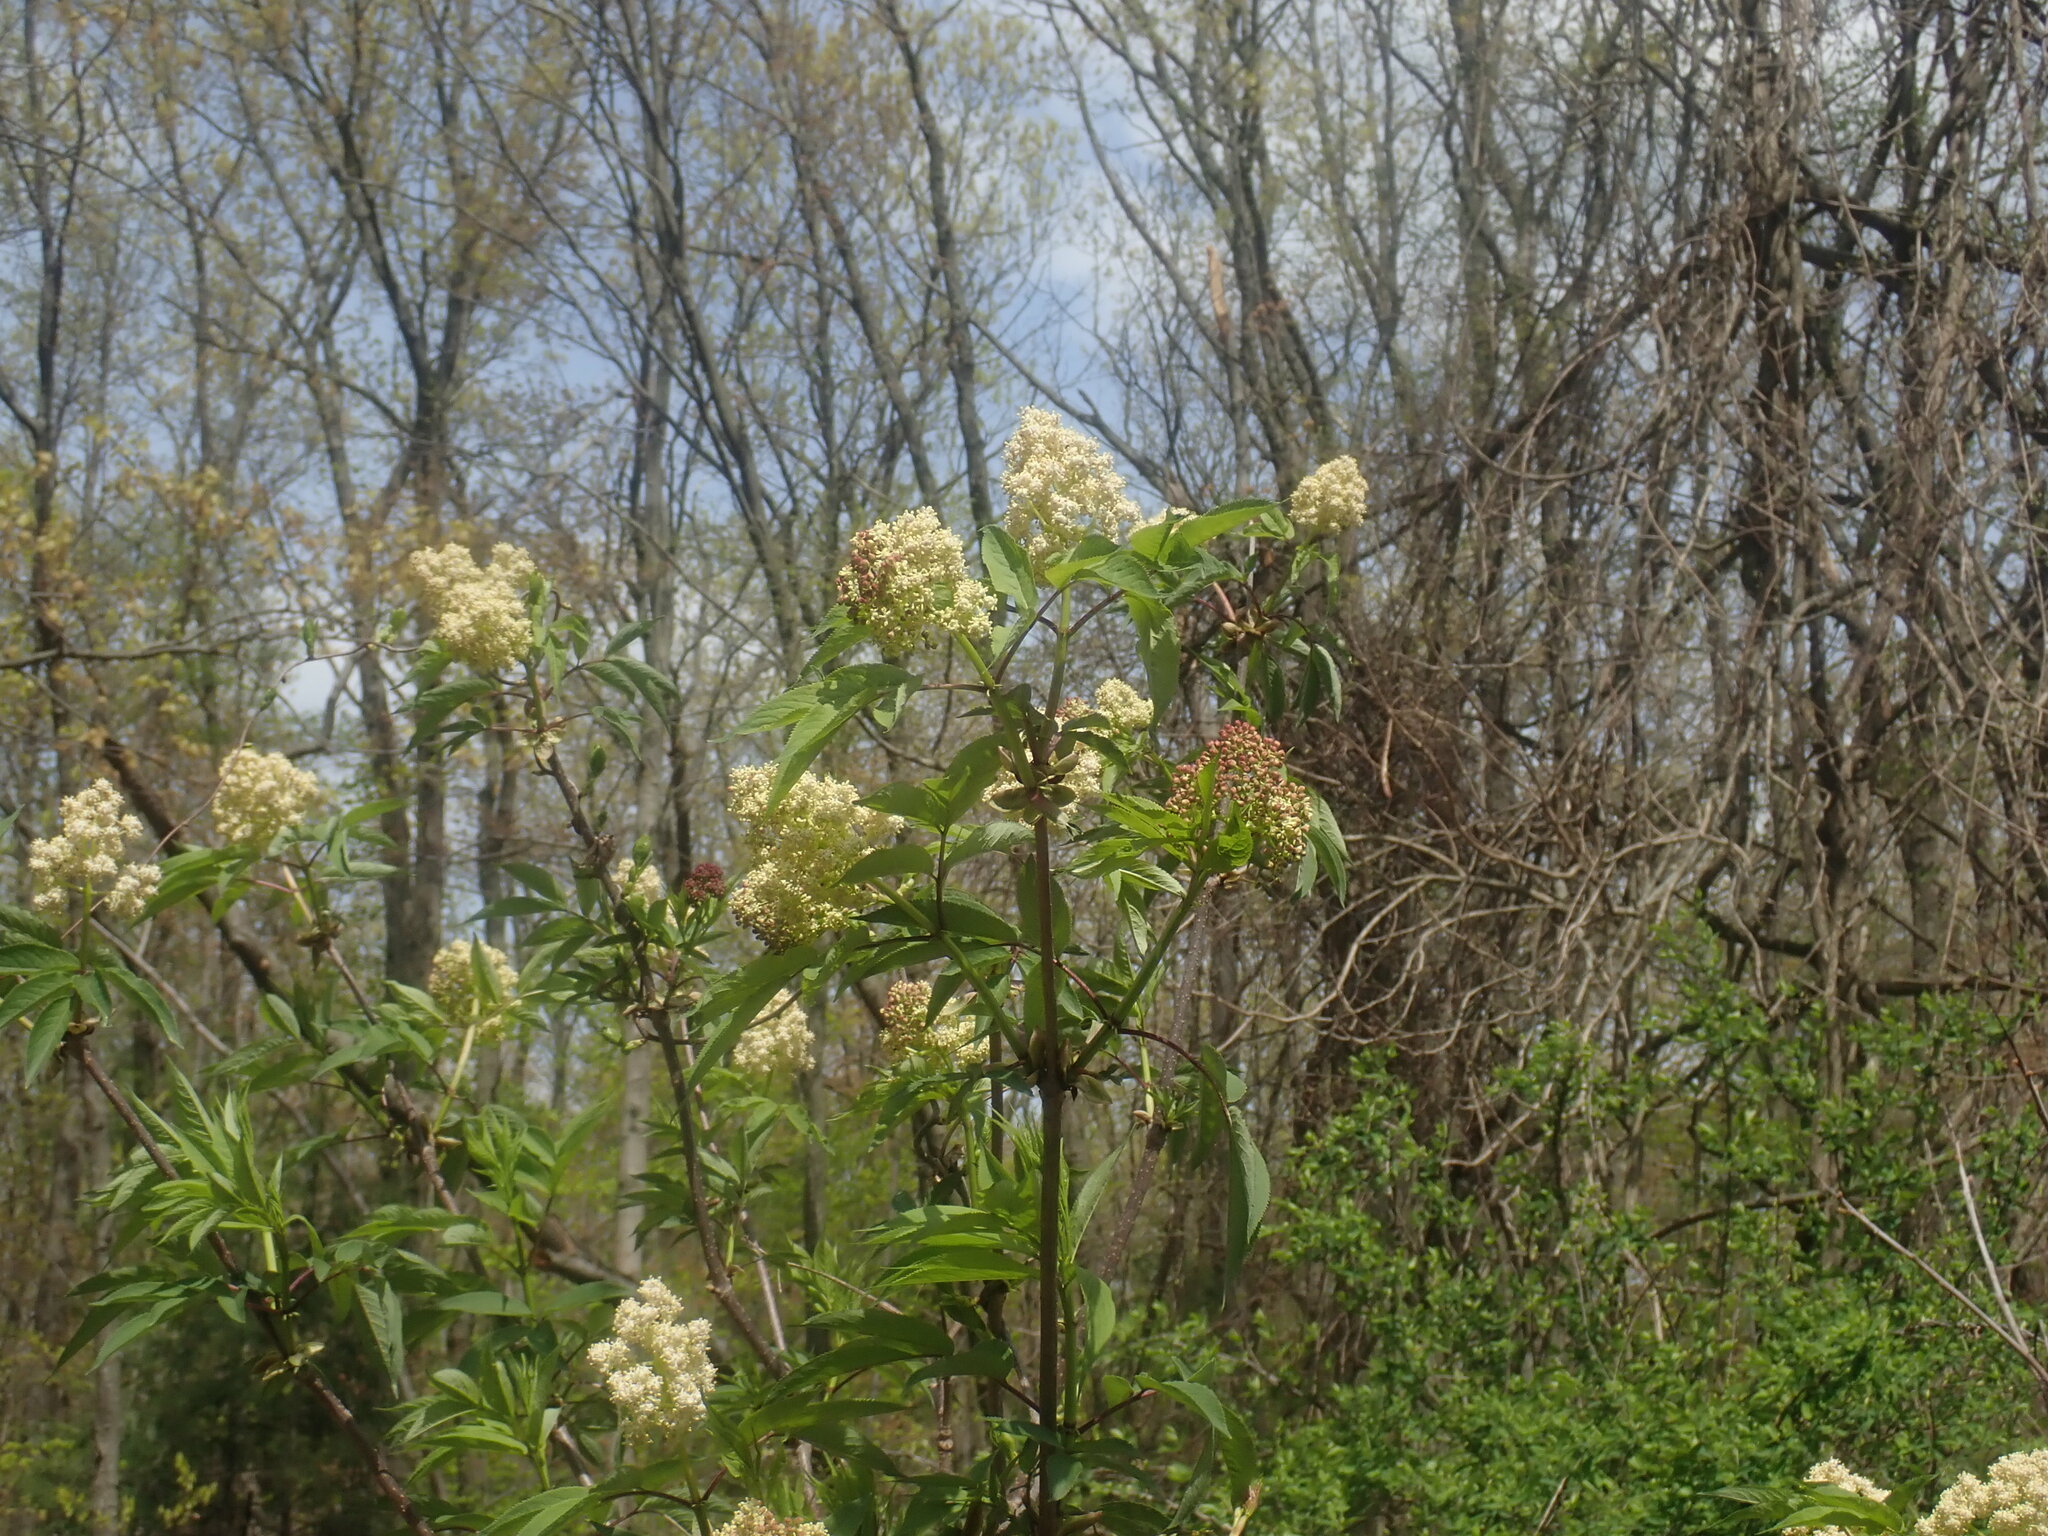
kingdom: Plantae
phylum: Tracheophyta
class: Magnoliopsida
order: Dipsacales
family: Viburnaceae
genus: Sambucus
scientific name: Sambucus racemosa
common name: Red-berried elder
